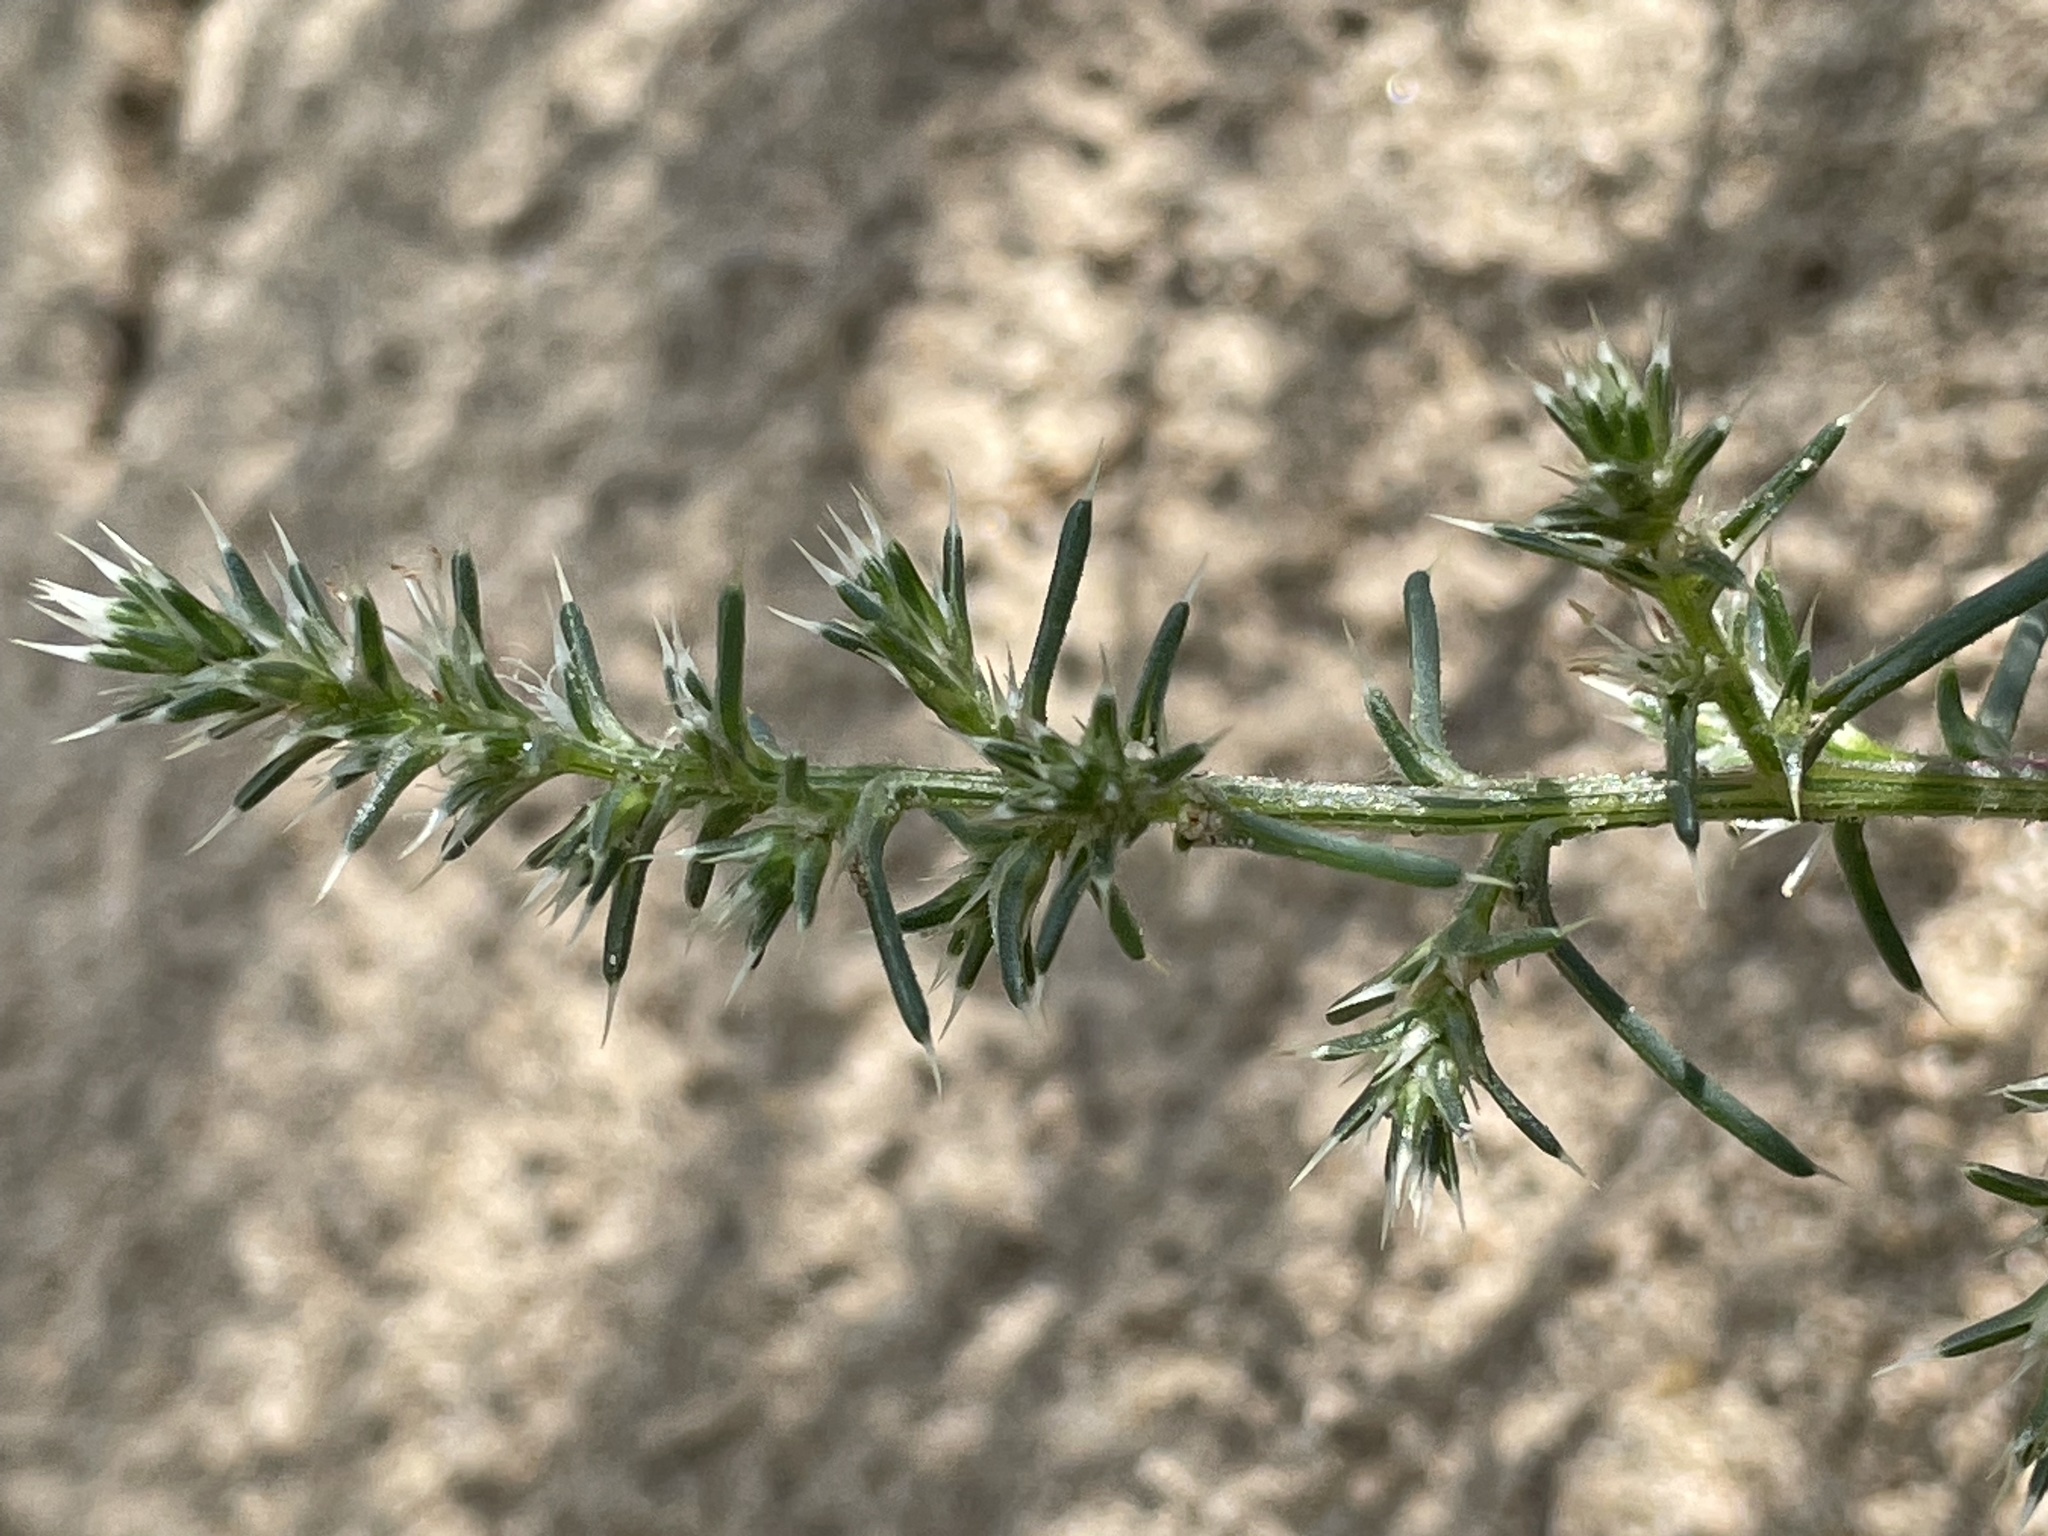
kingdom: Plantae
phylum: Tracheophyta
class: Magnoliopsida
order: Caryophyllales
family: Amaranthaceae
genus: Salsola
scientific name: Salsola tragus
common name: Prickly russian thistle
